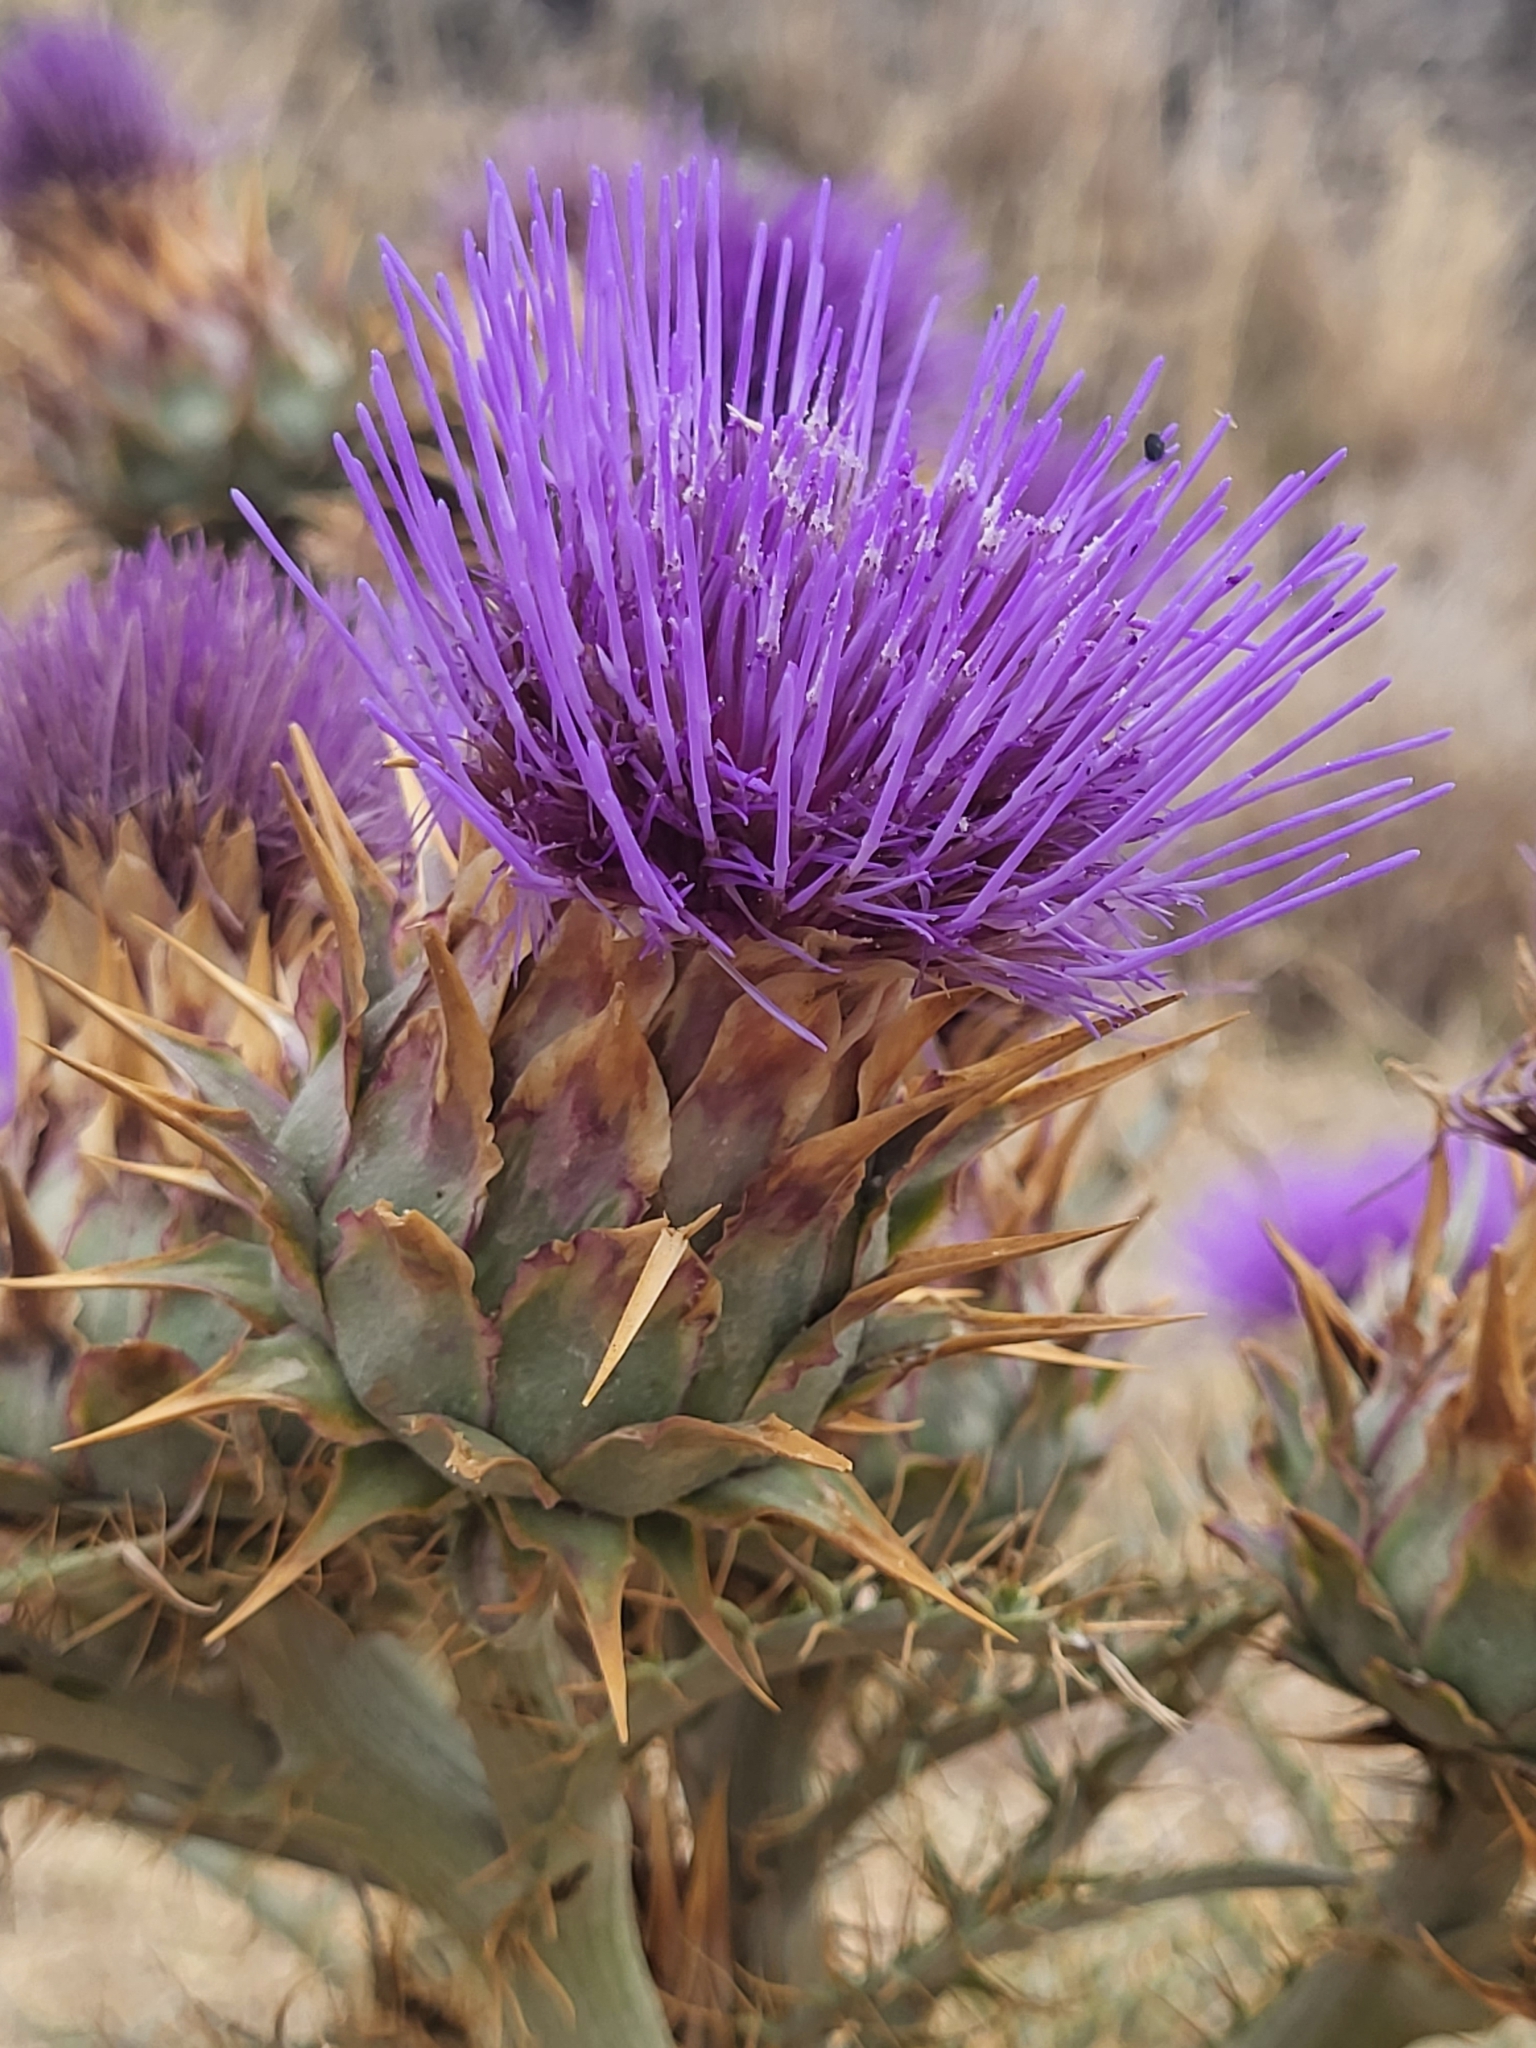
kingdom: Plantae
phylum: Tracheophyta
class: Magnoliopsida
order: Asterales
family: Asteraceae
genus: Cynara
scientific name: Cynara cardunculus
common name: Globe artichoke
